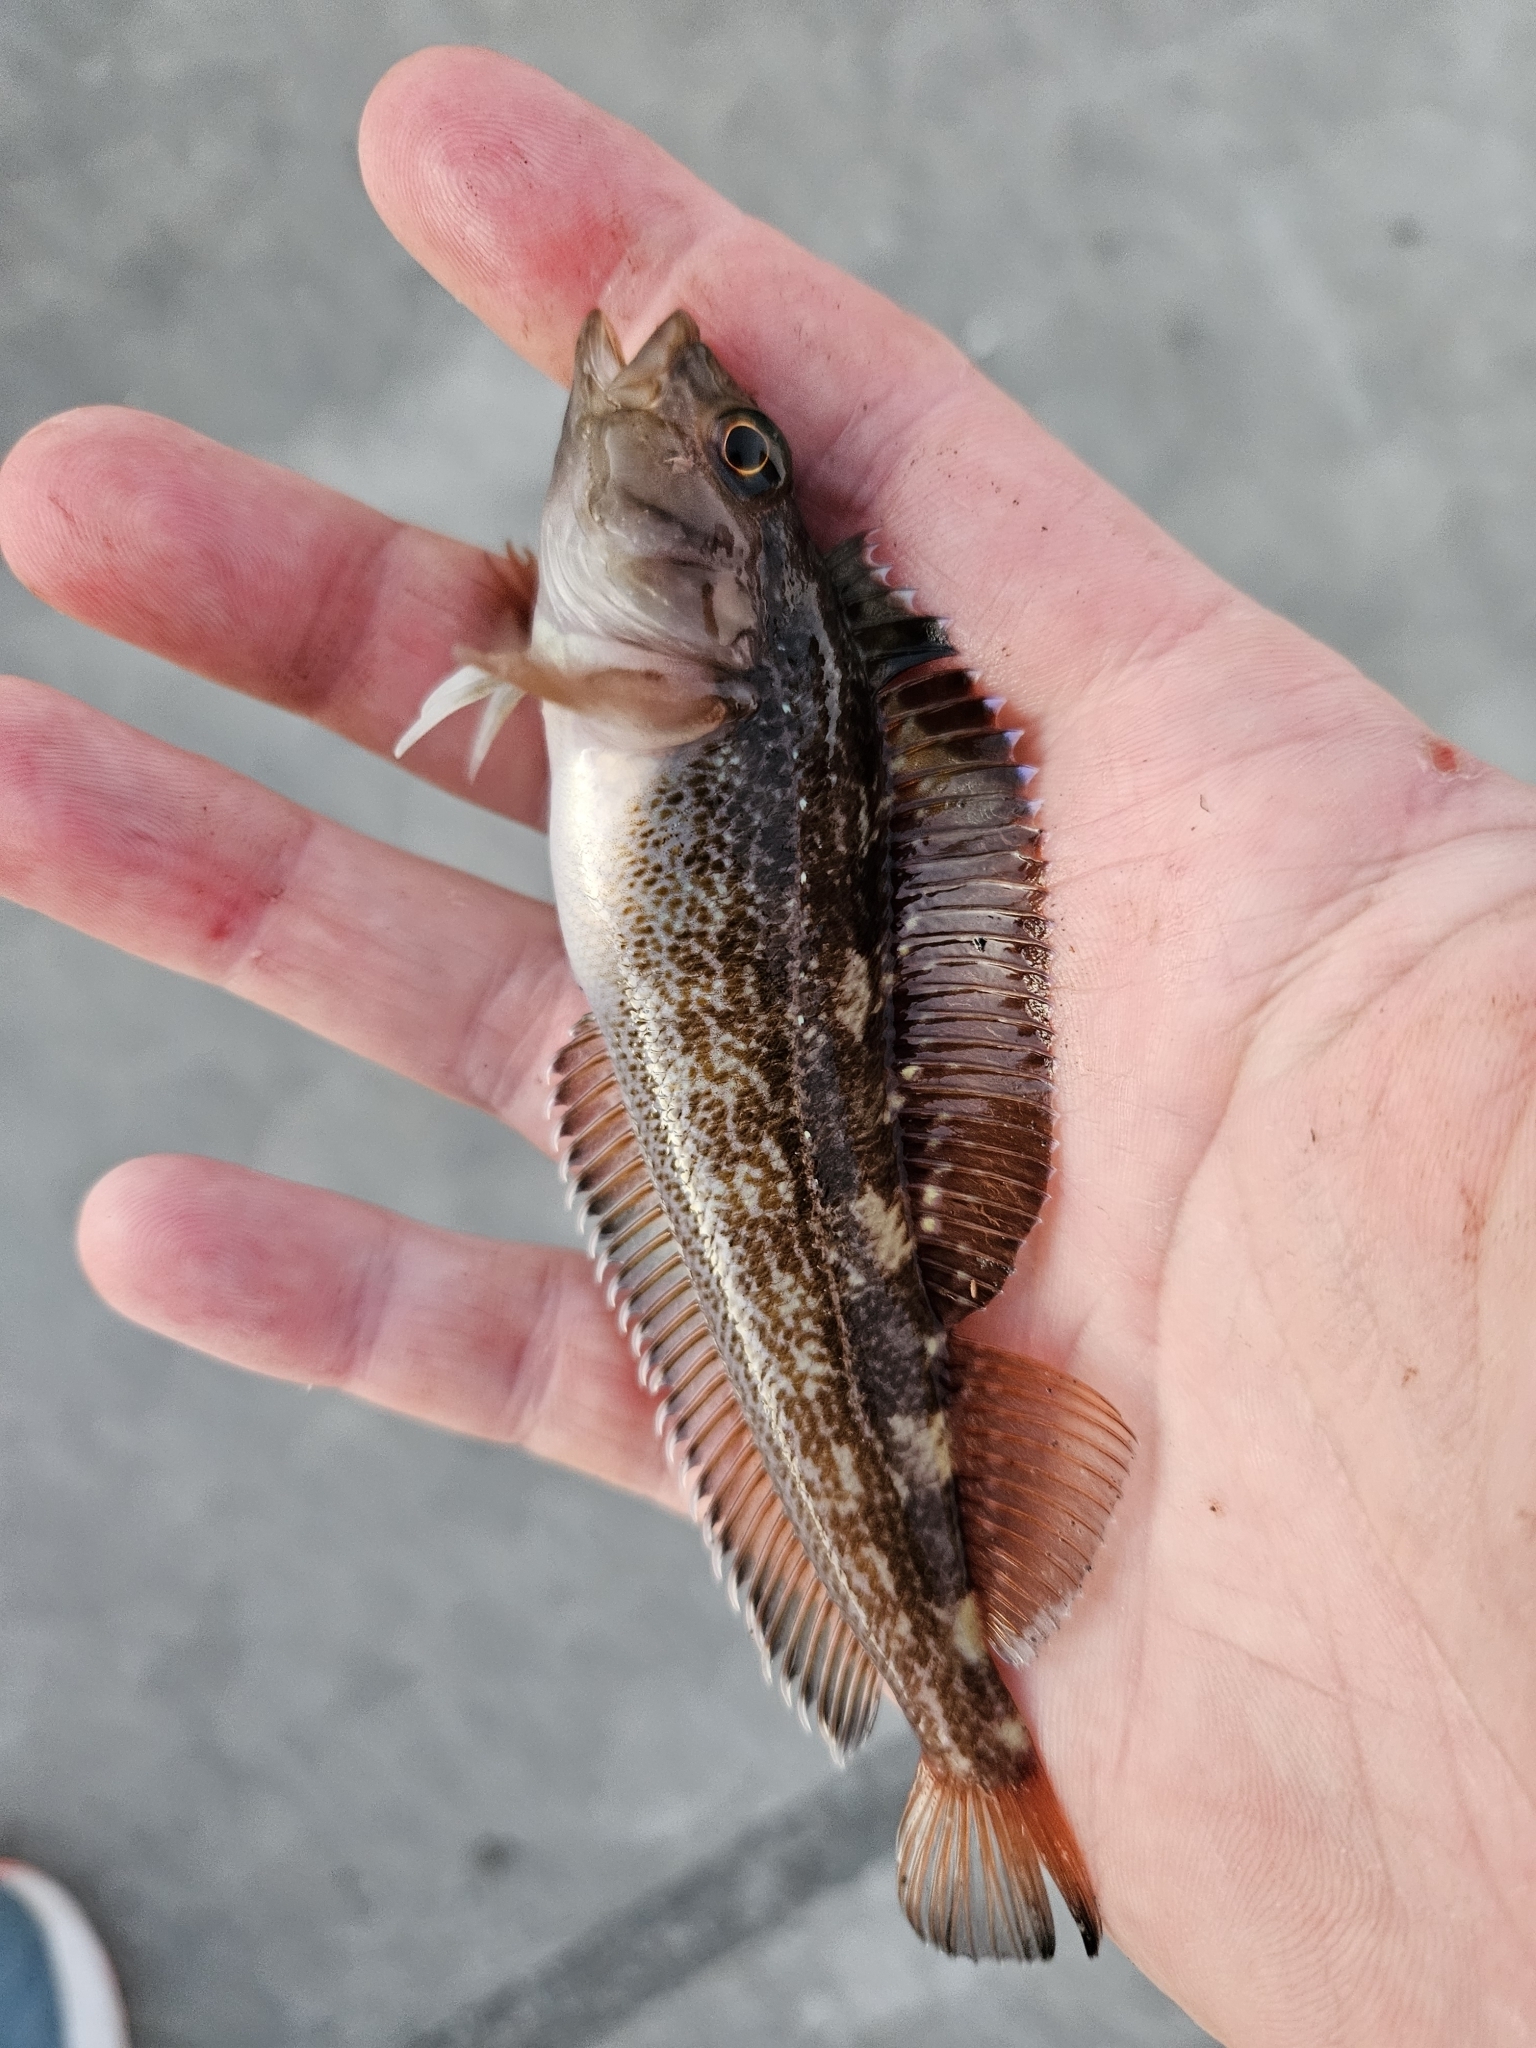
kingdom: Animalia
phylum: Chordata
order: Perciformes
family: Tripterygiidae
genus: Forsterygion
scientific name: Forsterygion varium
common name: Variable triplefin
